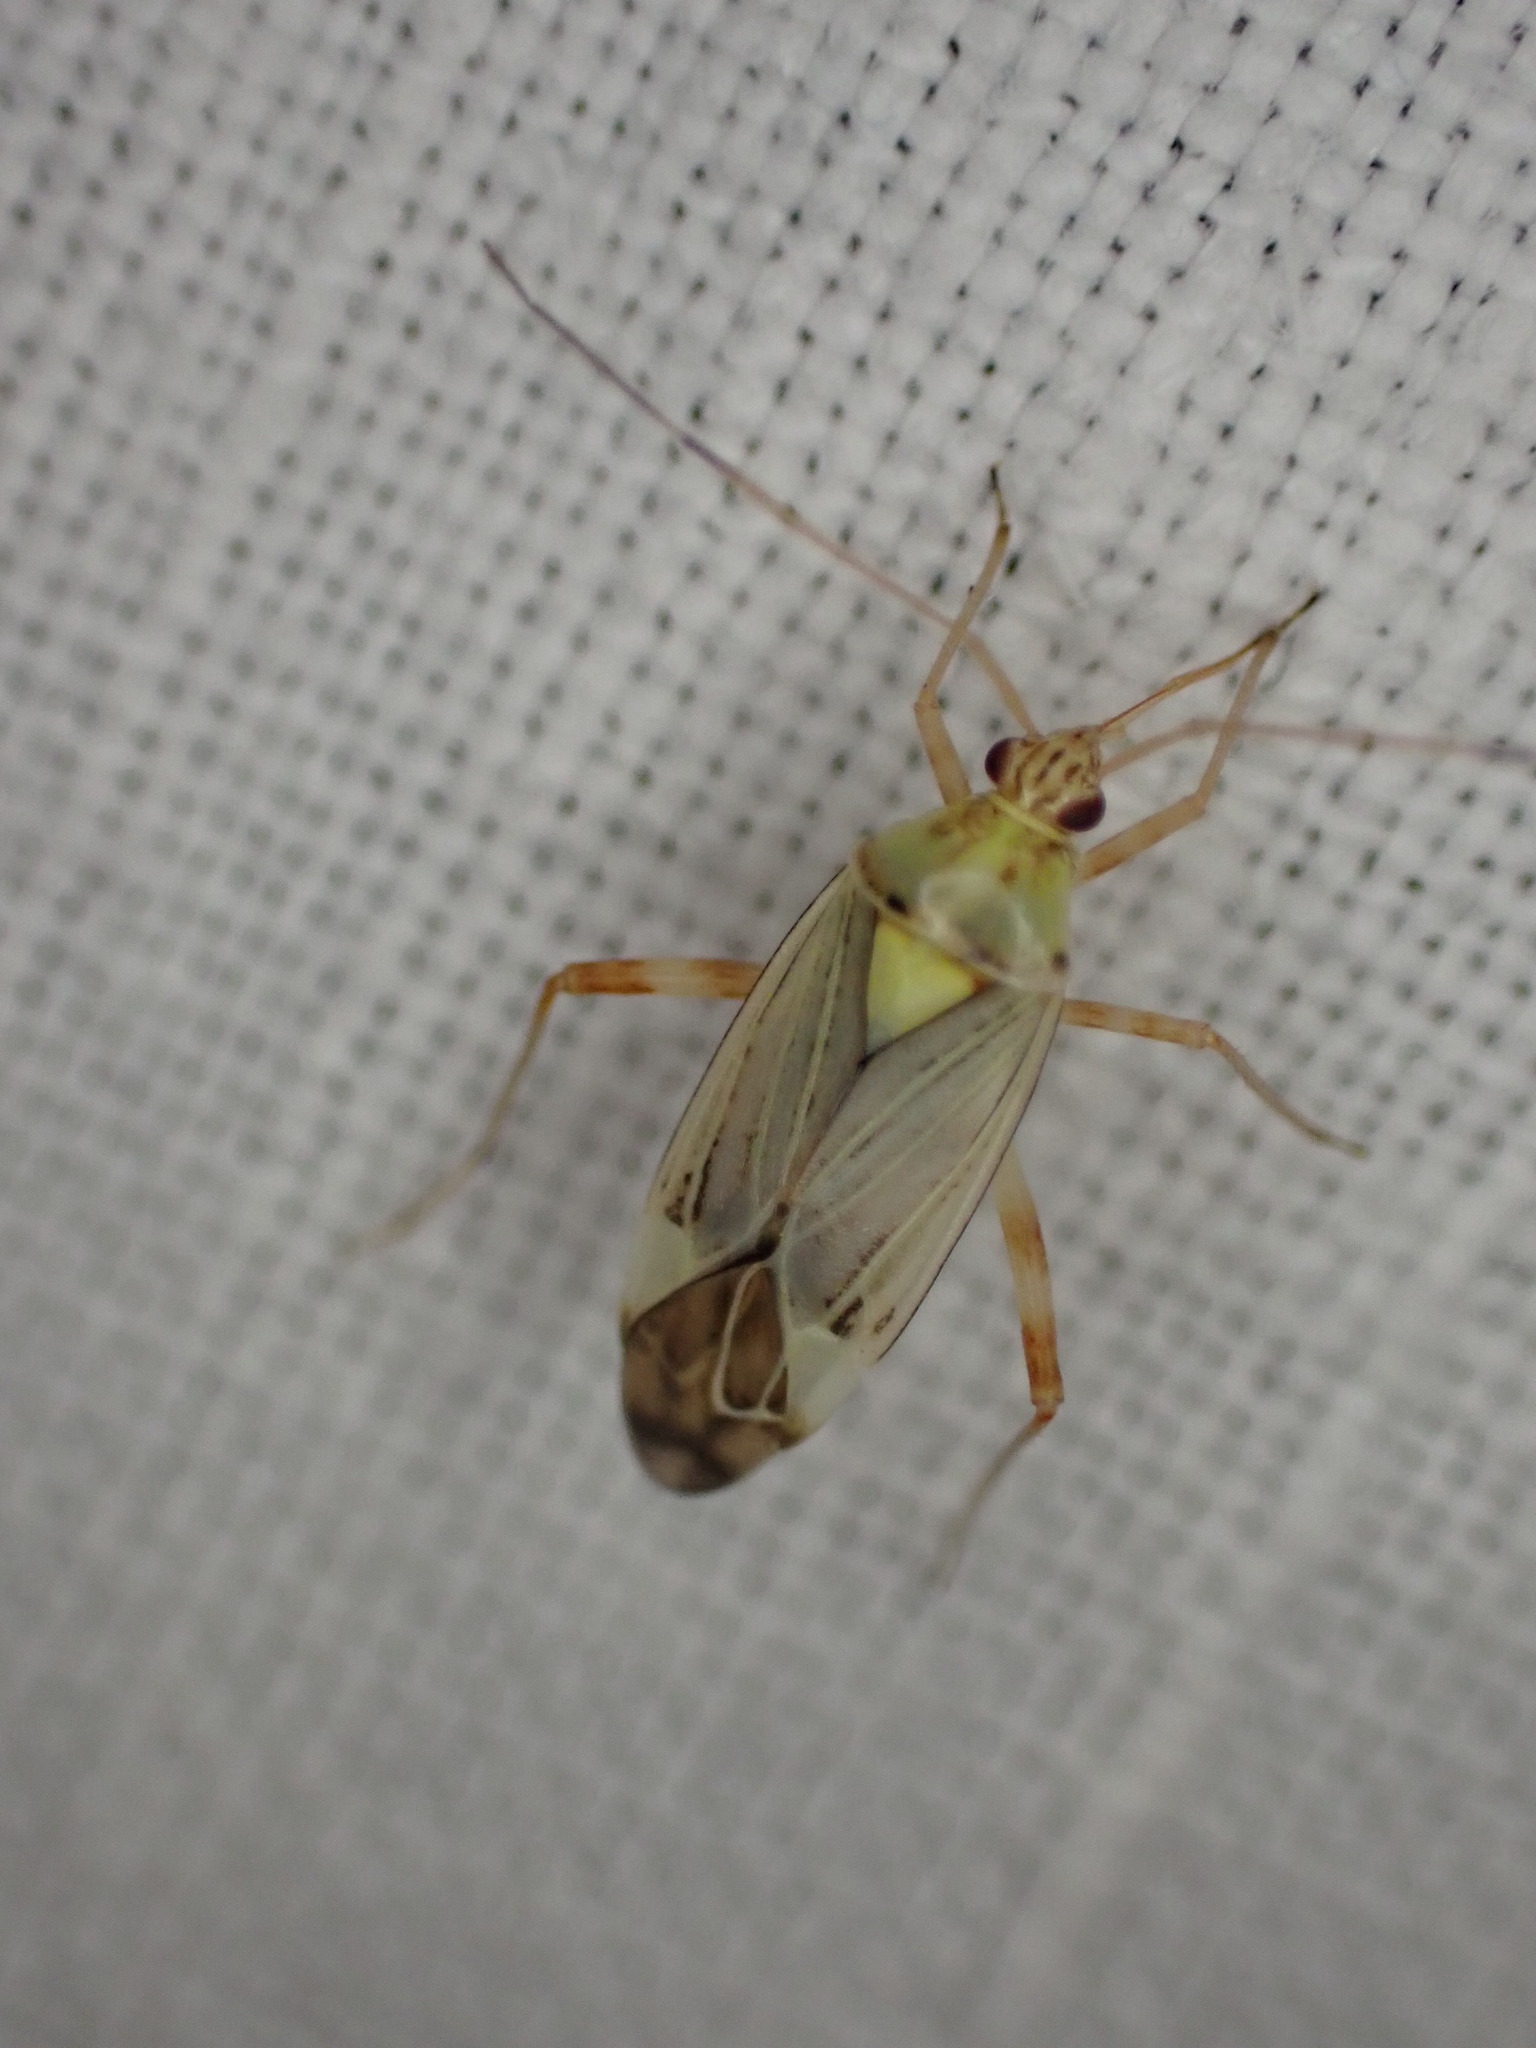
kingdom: Animalia
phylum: Arthropoda
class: Insecta
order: Hemiptera
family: Miridae
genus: Rhabdomiris
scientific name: Rhabdomiris striatellus
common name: Plant bug
